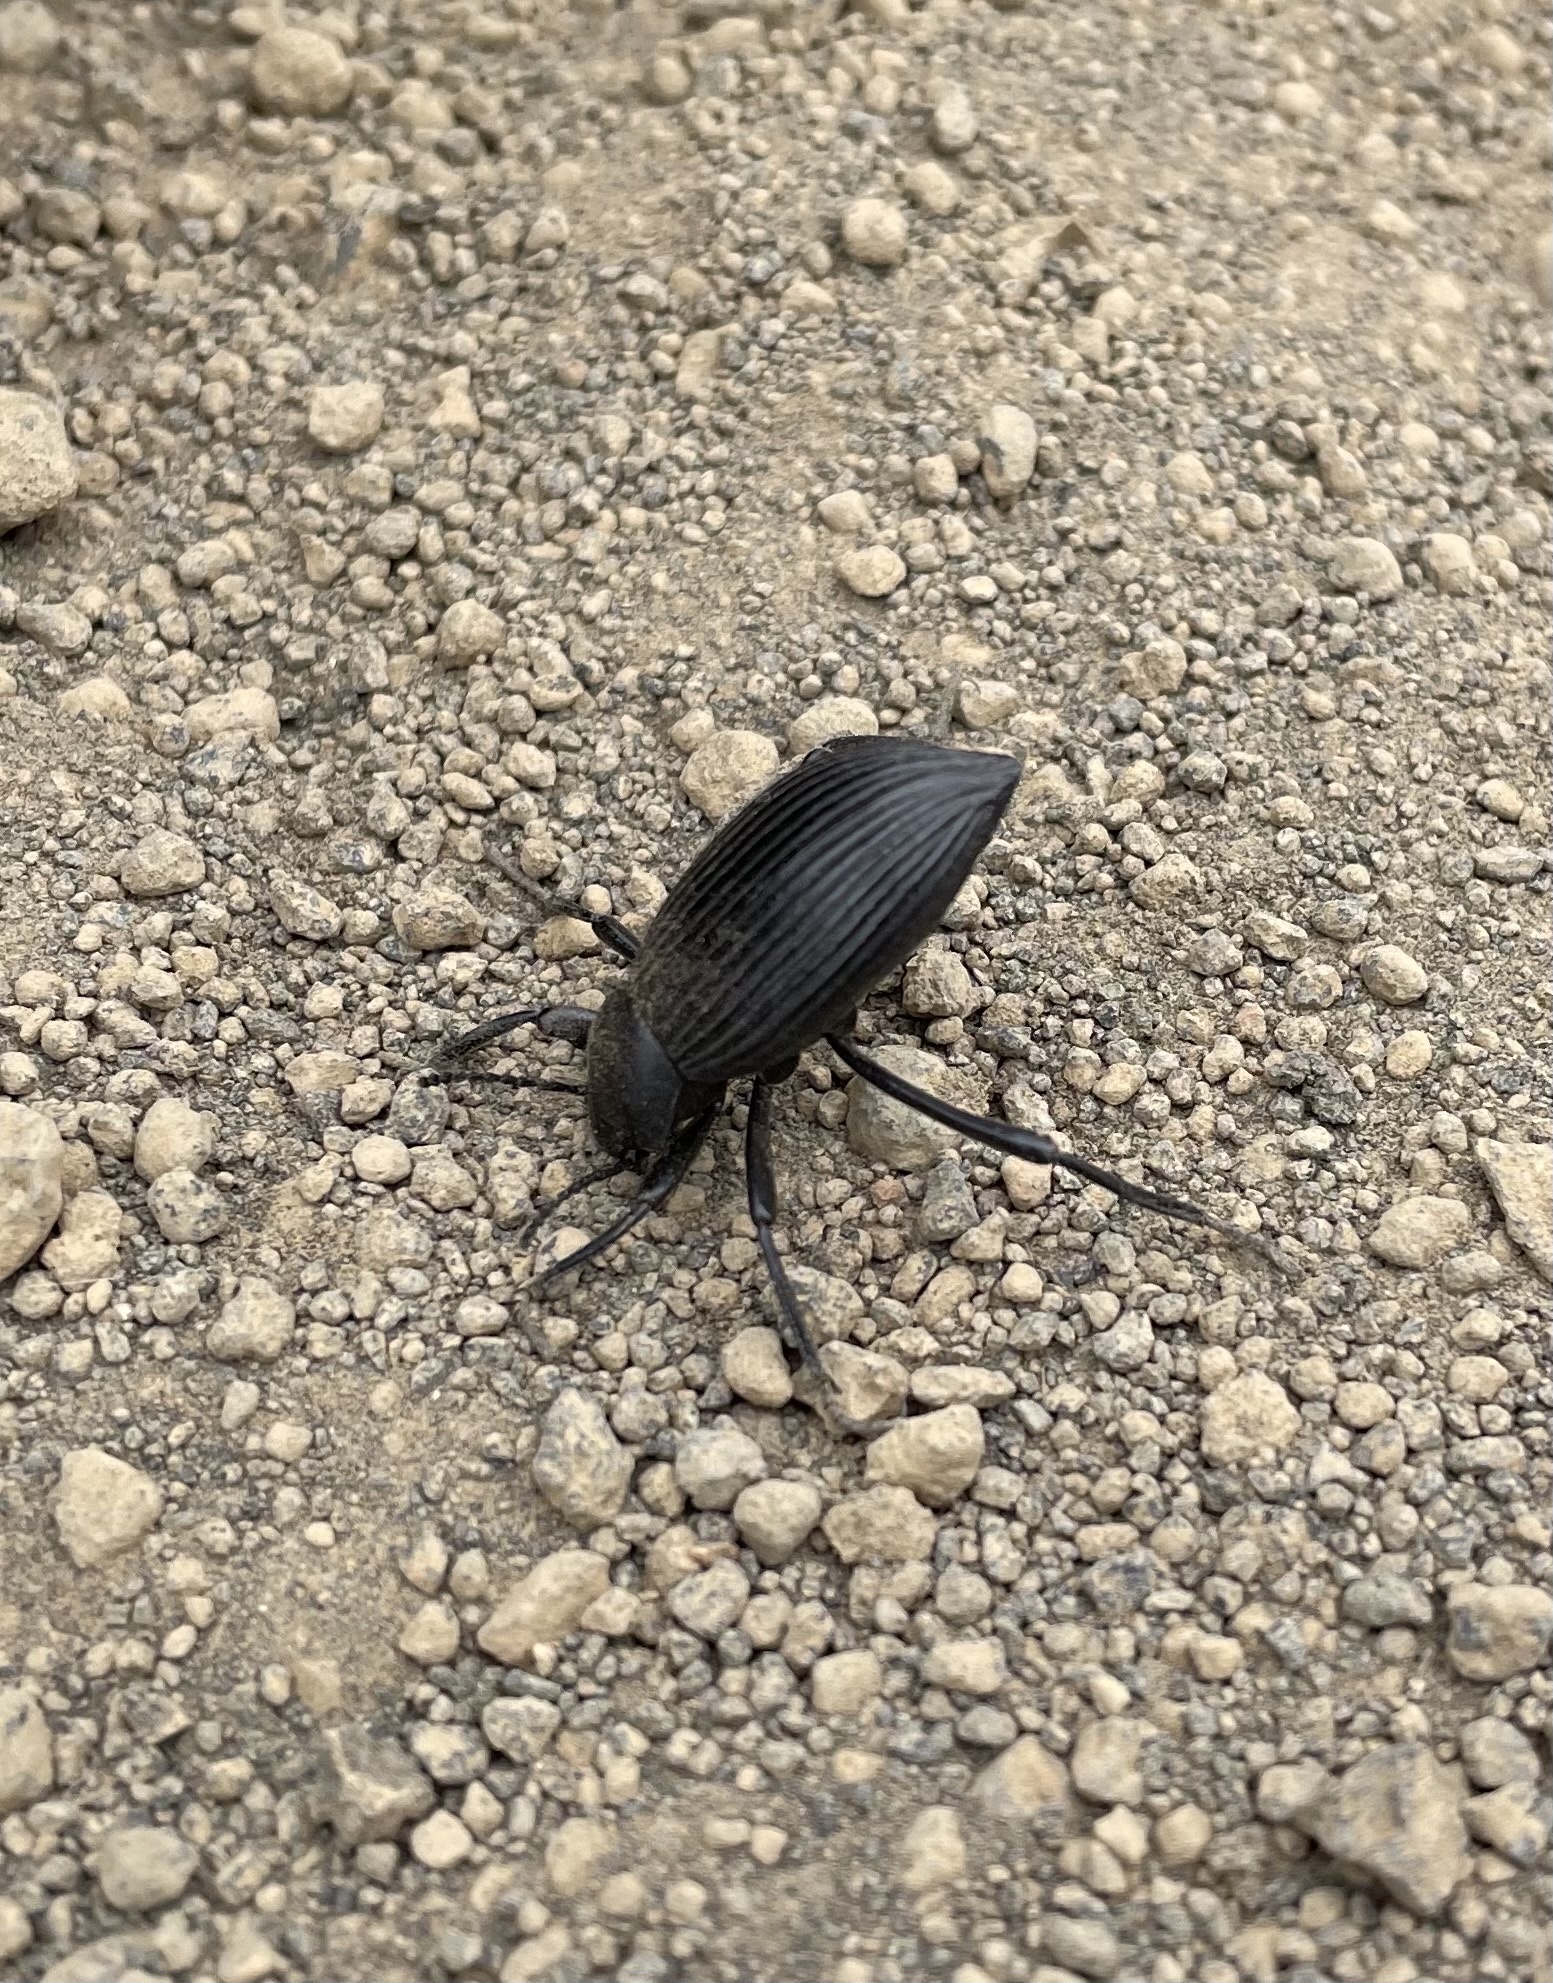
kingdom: Animalia
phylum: Arthropoda
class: Insecta
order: Coleoptera
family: Tenebrionidae
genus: Eleodes
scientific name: Eleodes hispilabris
